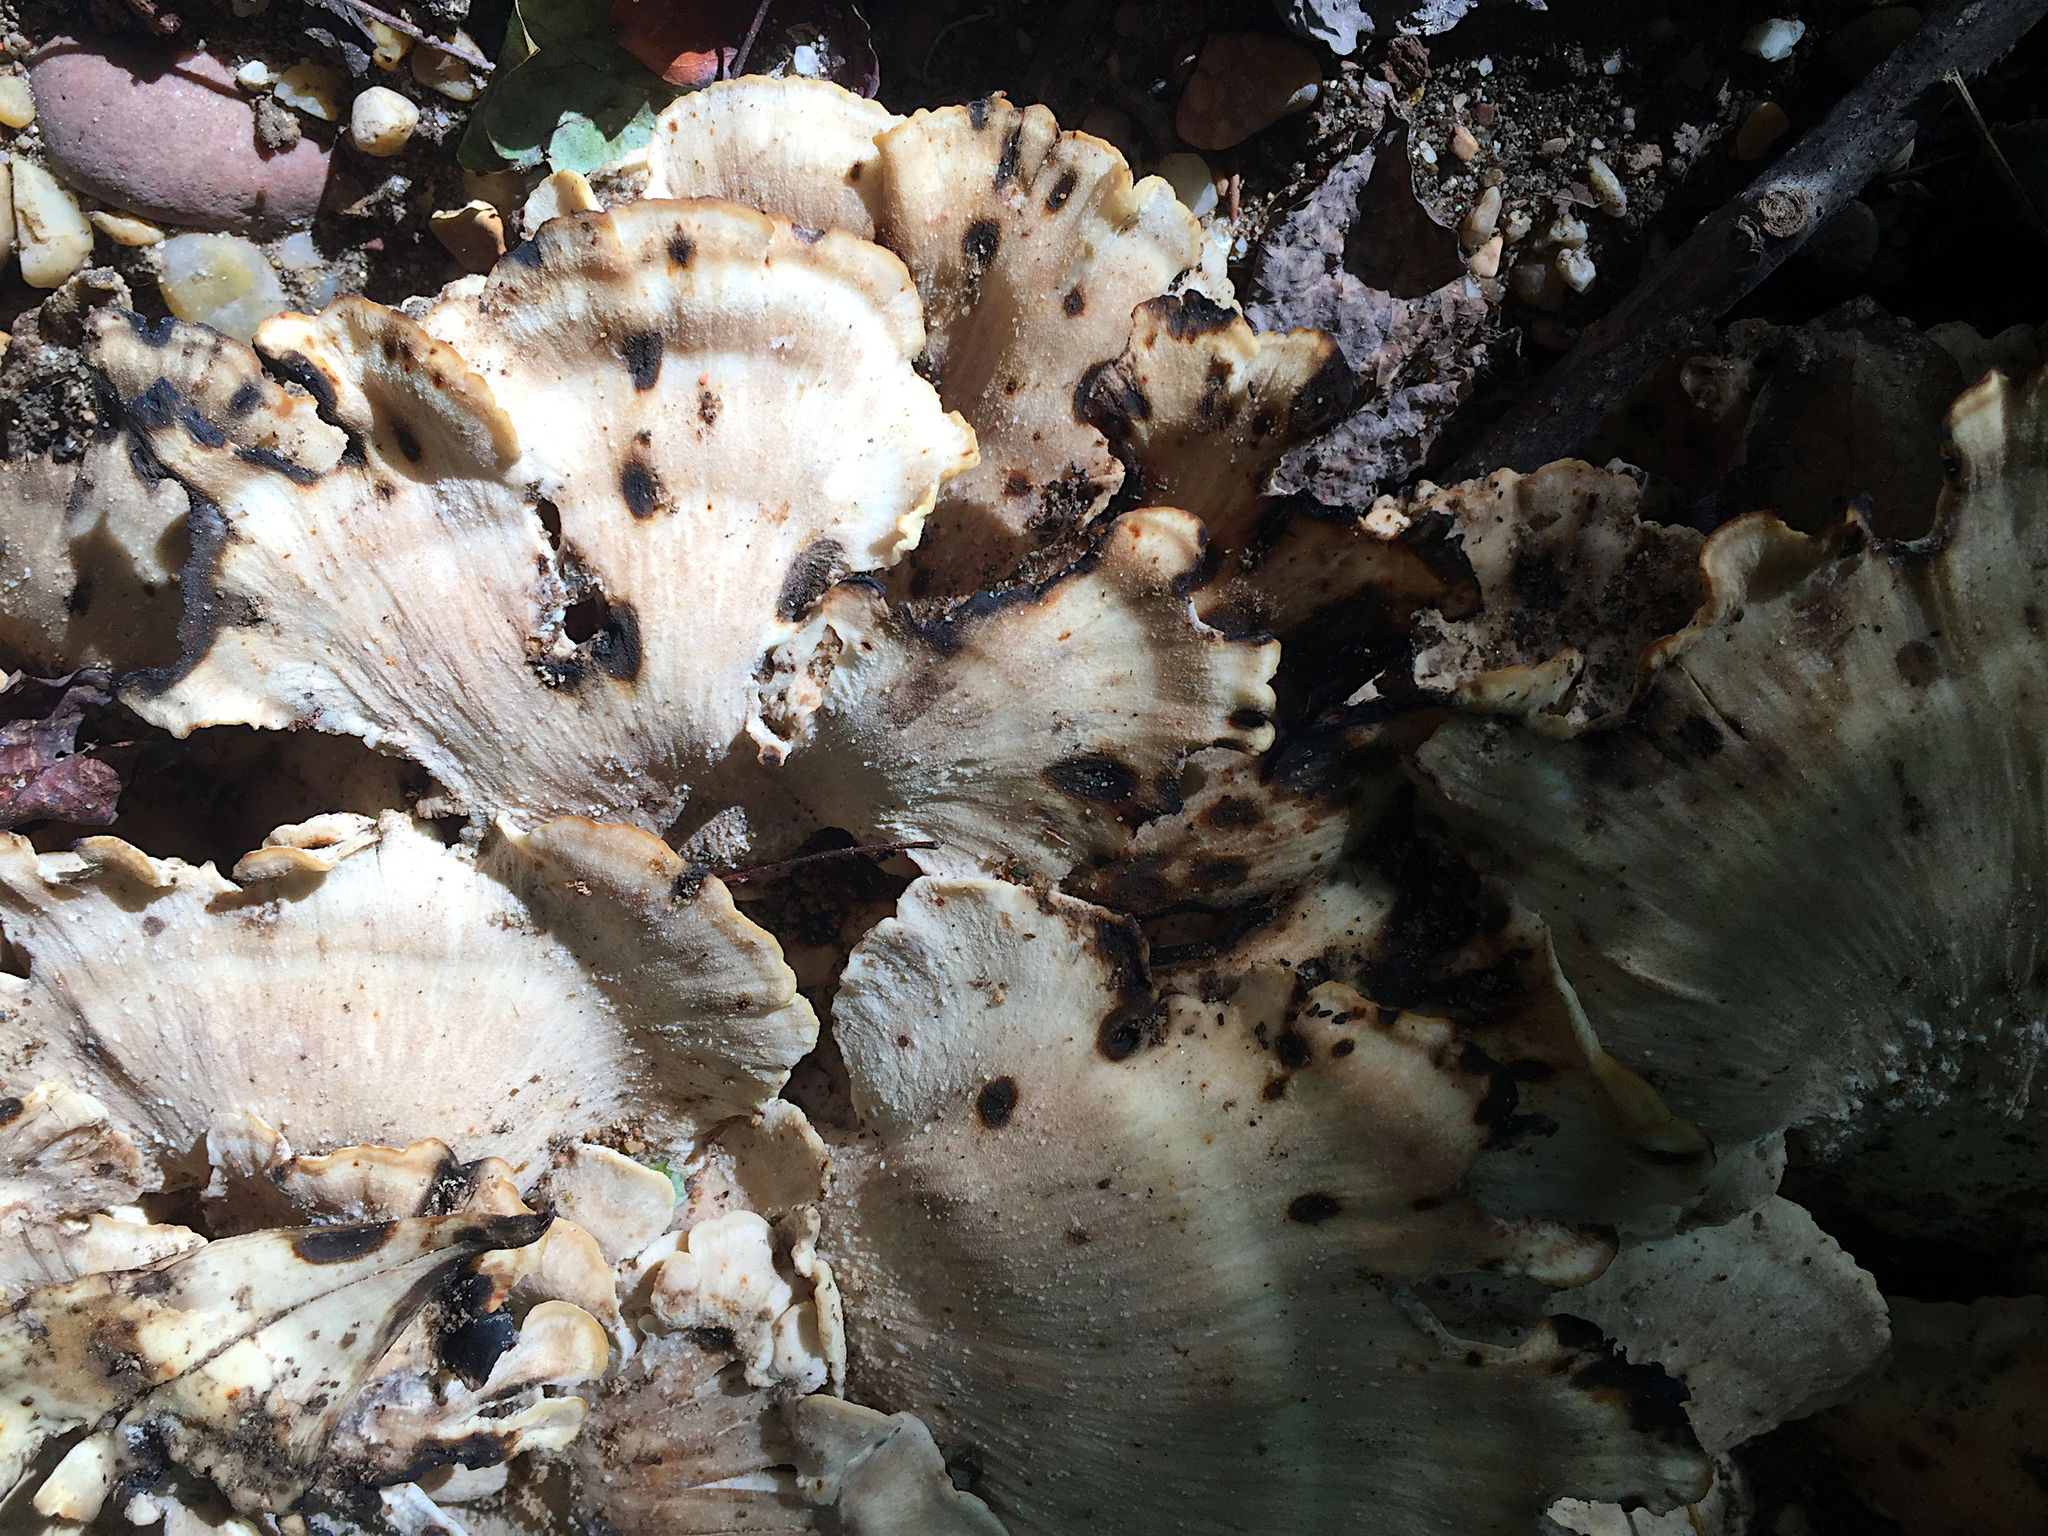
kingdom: Fungi
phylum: Basidiomycota
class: Agaricomycetes
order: Polyporales
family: Meripilaceae
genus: Meripilus
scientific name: Meripilus sumstinei
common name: Black-staining polypore
